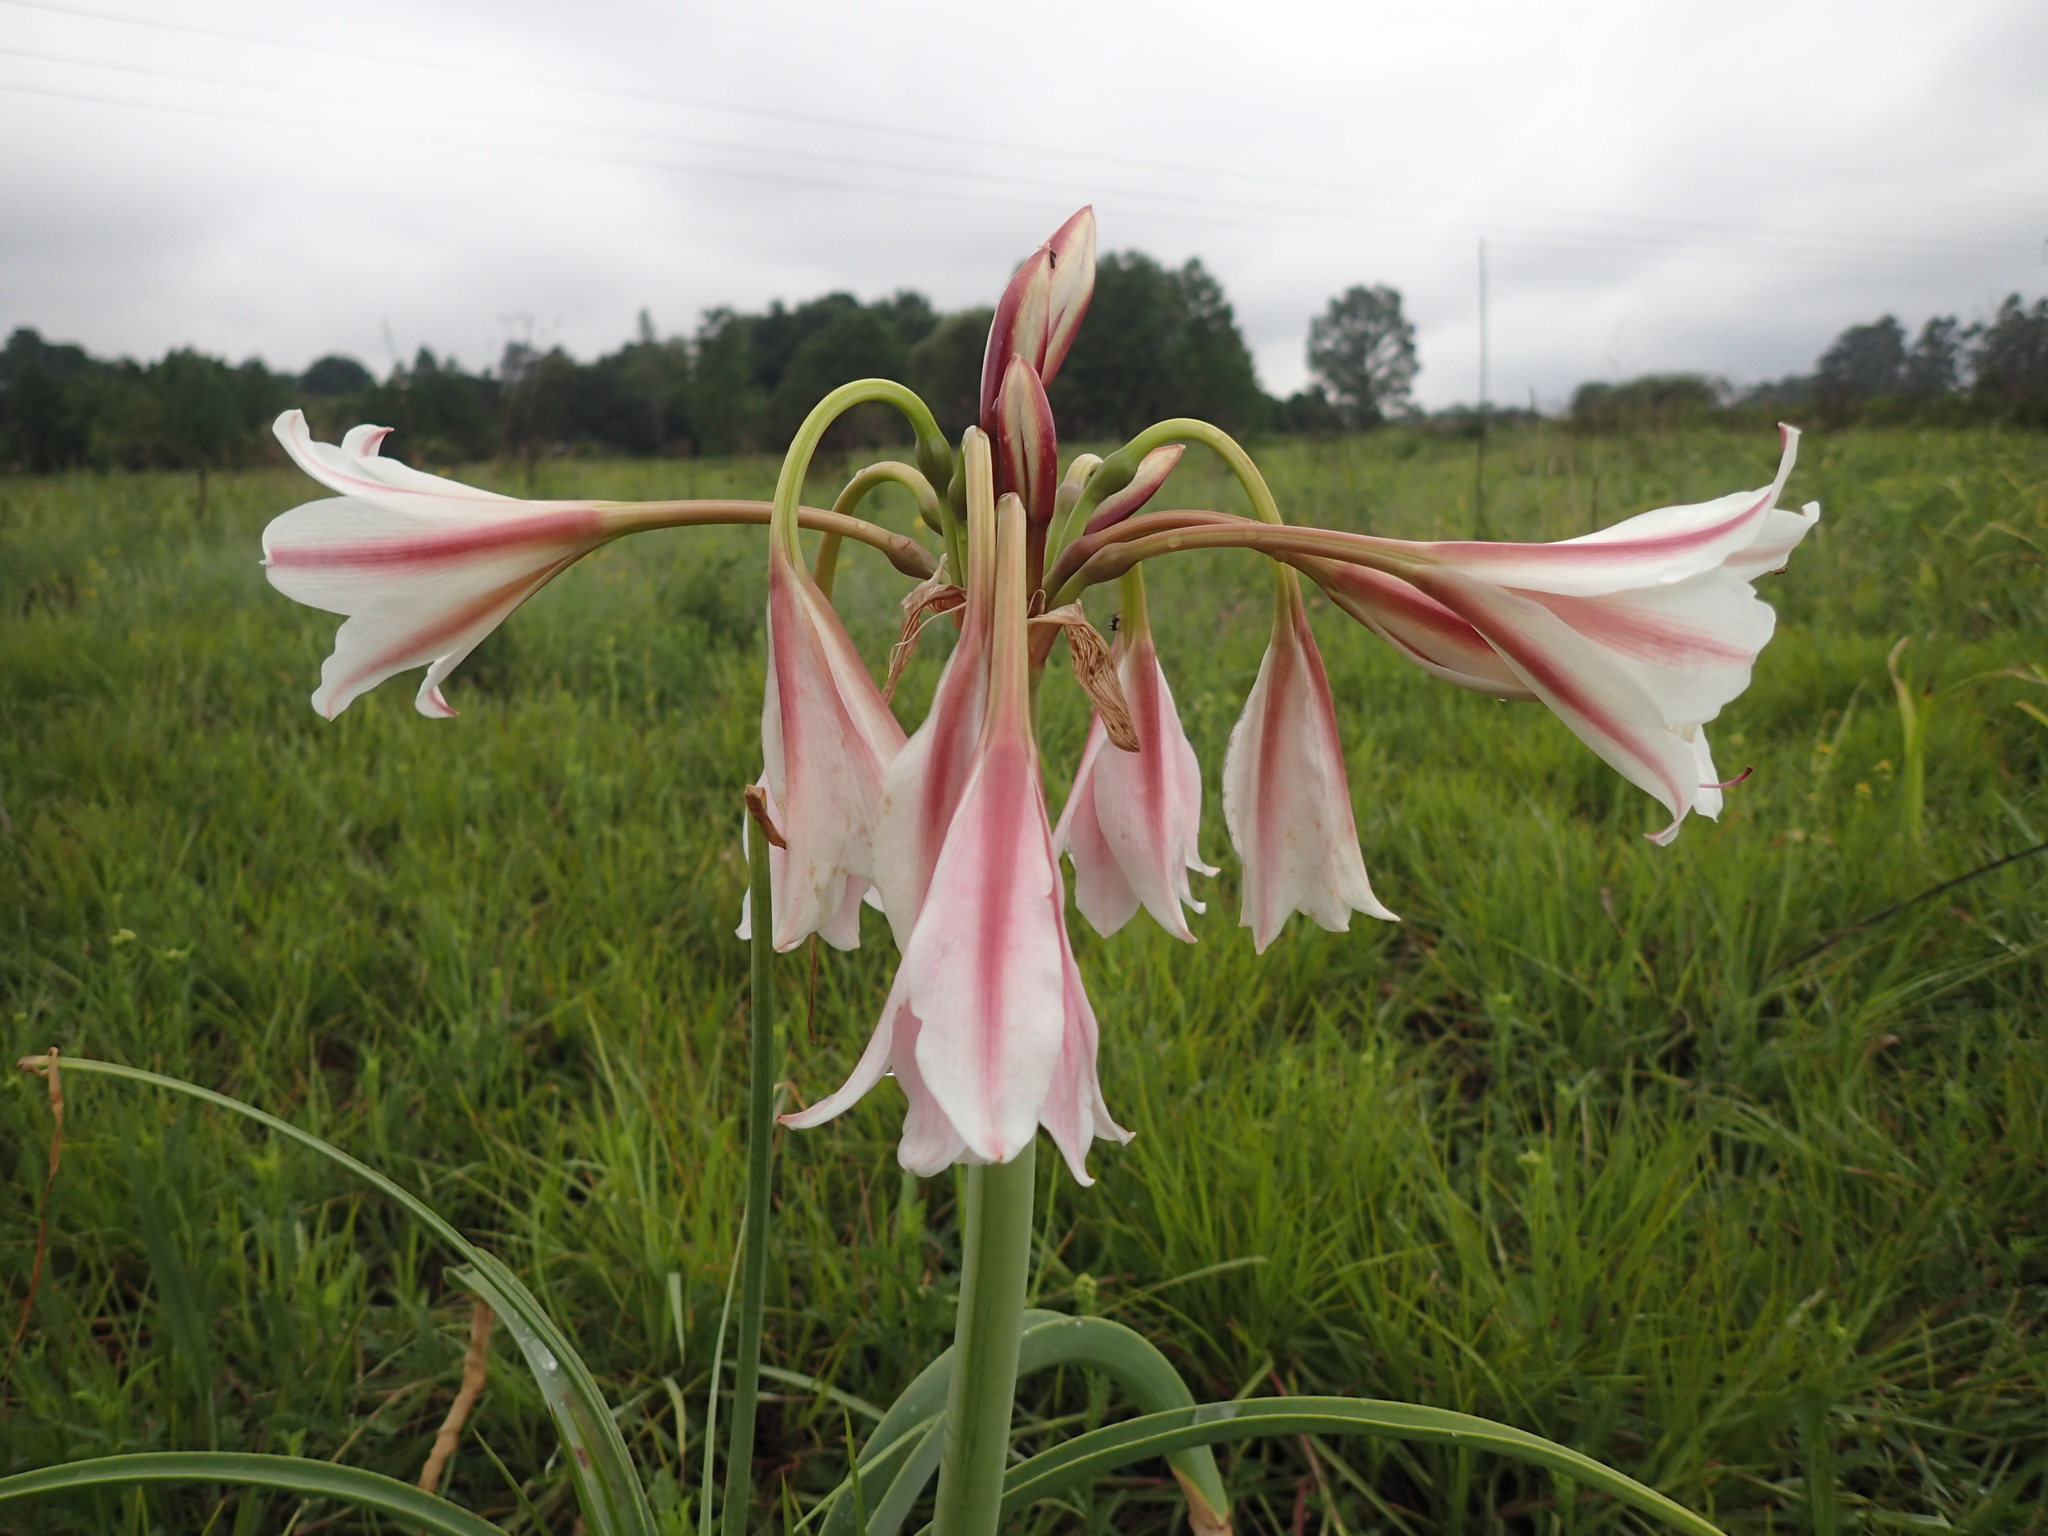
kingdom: Plantae
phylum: Tracheophyta
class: Liliopsida
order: Asparagales
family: Amaryllidaceae
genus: Crinum
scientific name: Crinum bulbispermum
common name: Hardy swamplily
